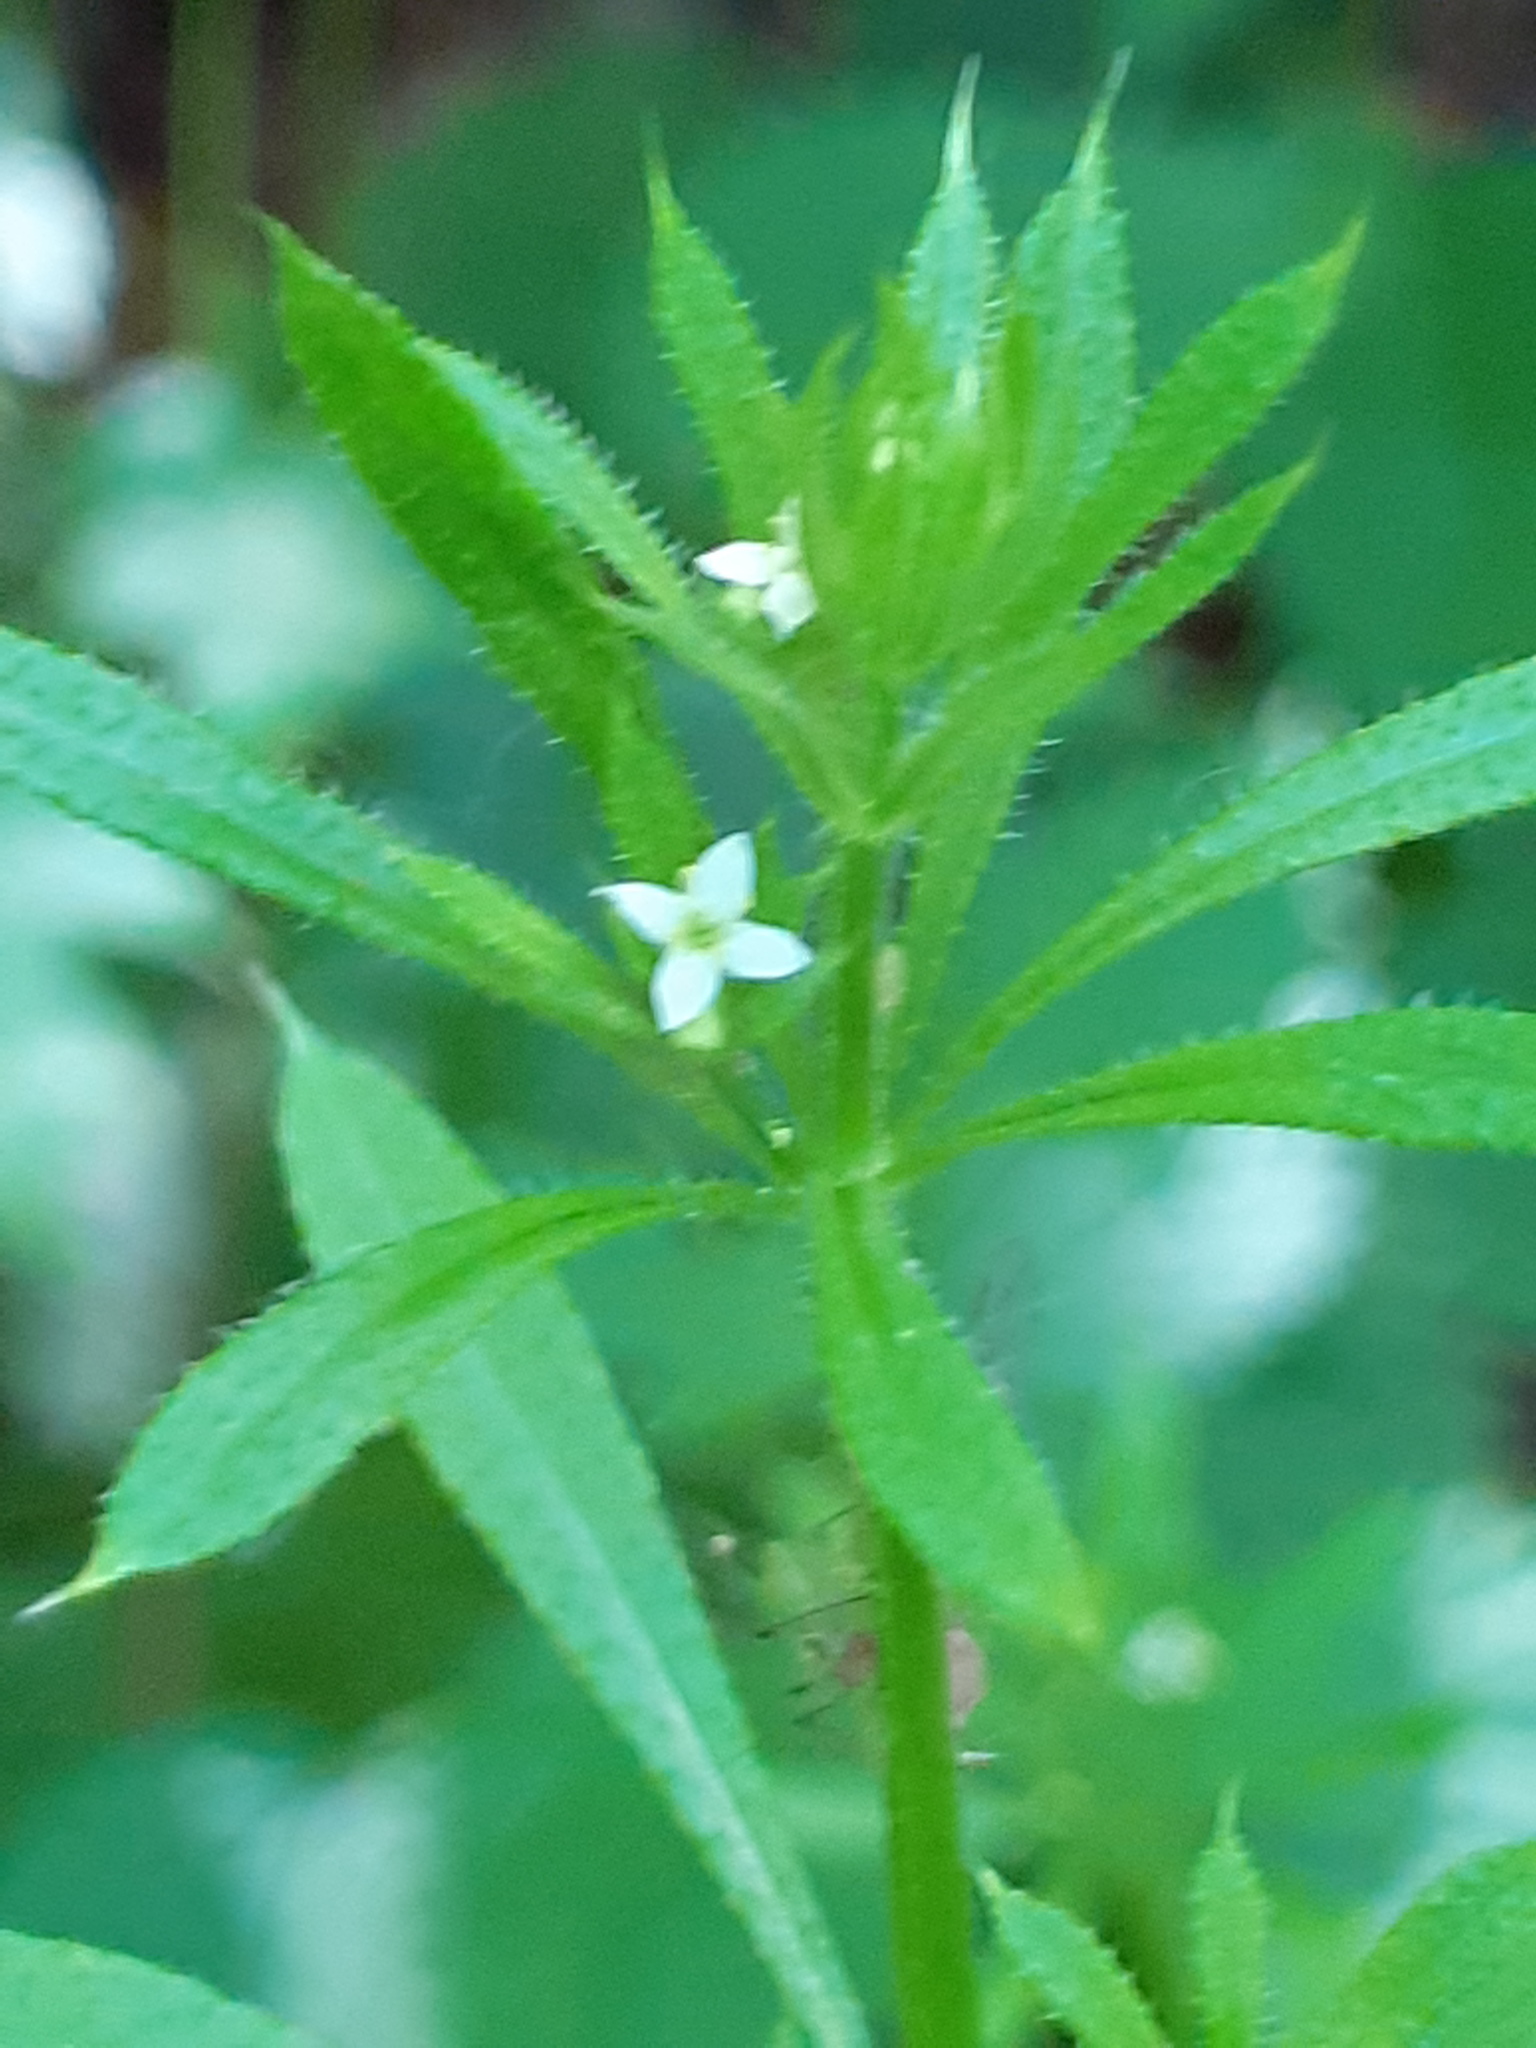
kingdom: Plantae
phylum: Tracheophyta
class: Magnoliopsida
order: Gentianales
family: Rubiaceae
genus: Galium
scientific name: Galium aparine
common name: Cleavers
